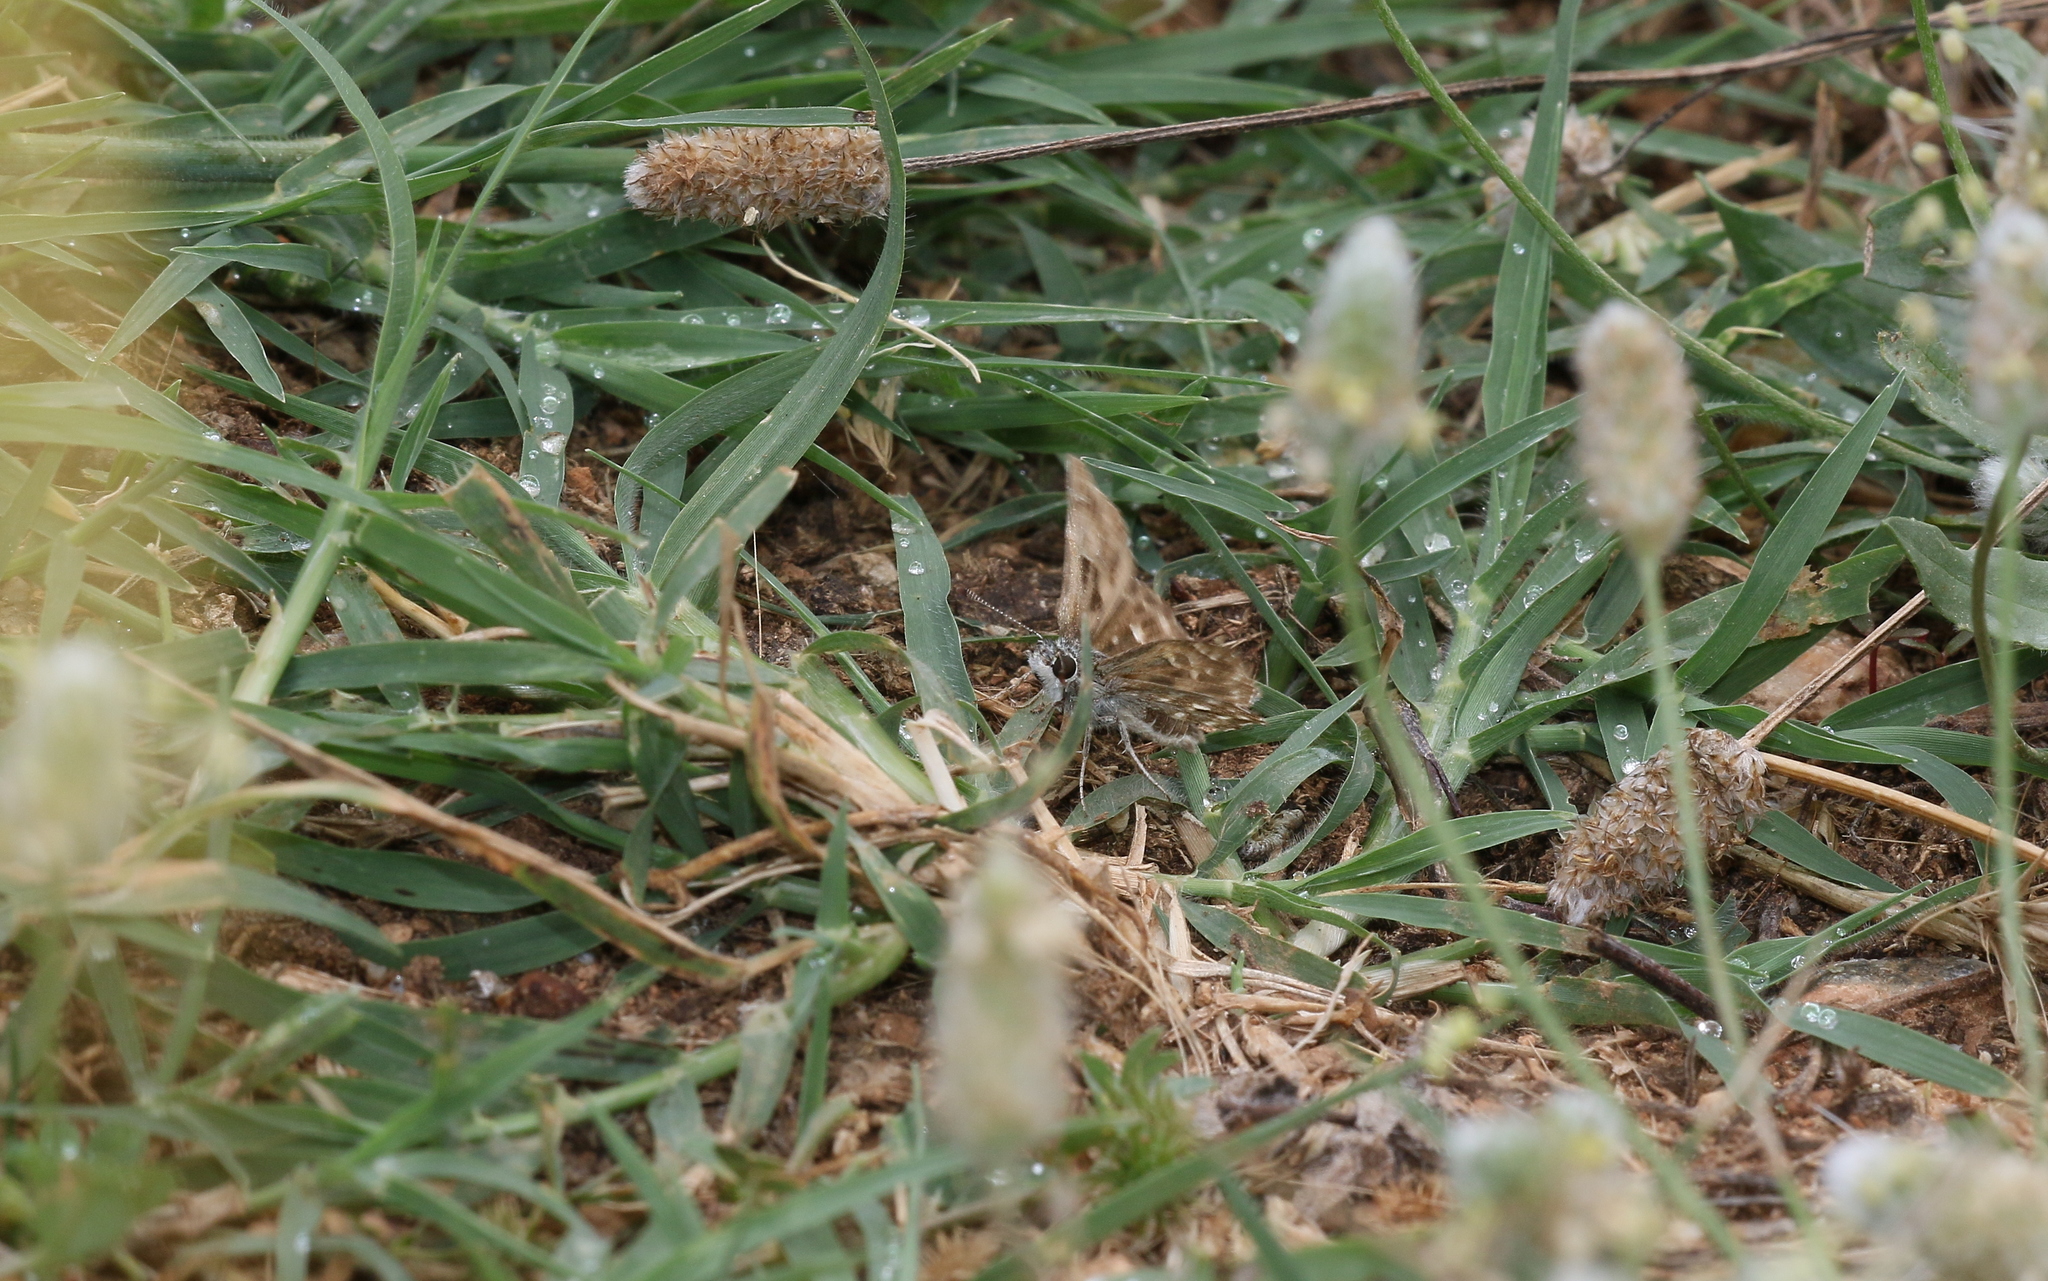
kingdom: Animalia
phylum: Arthropoda
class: Insecta
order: Lepidoptera
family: Hesperiidae
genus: Carcharodus
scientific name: Carcharodus alceae
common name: Mallow skipper
